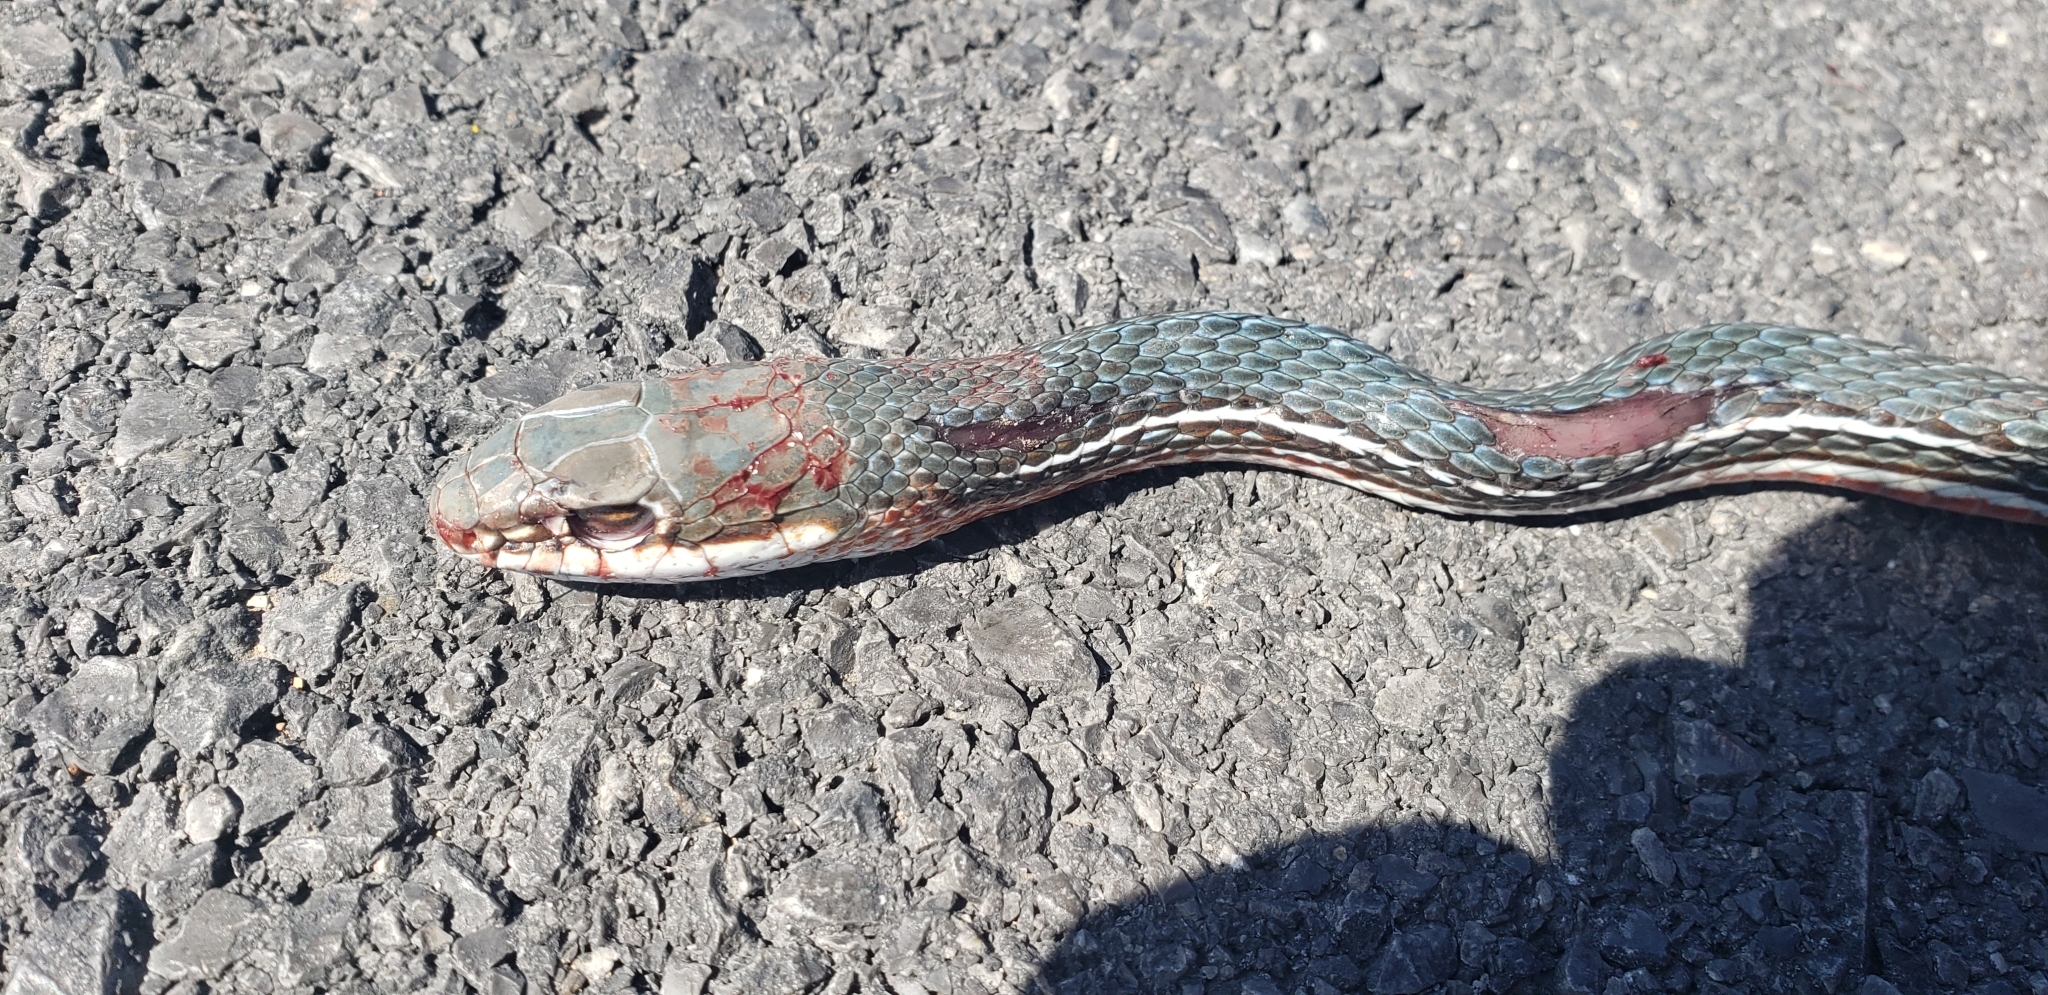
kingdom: Animalia
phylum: Chordata
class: Squamata
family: Colubridae
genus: Masticophis
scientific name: Masticophis schotti
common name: Schott's whipsnake
